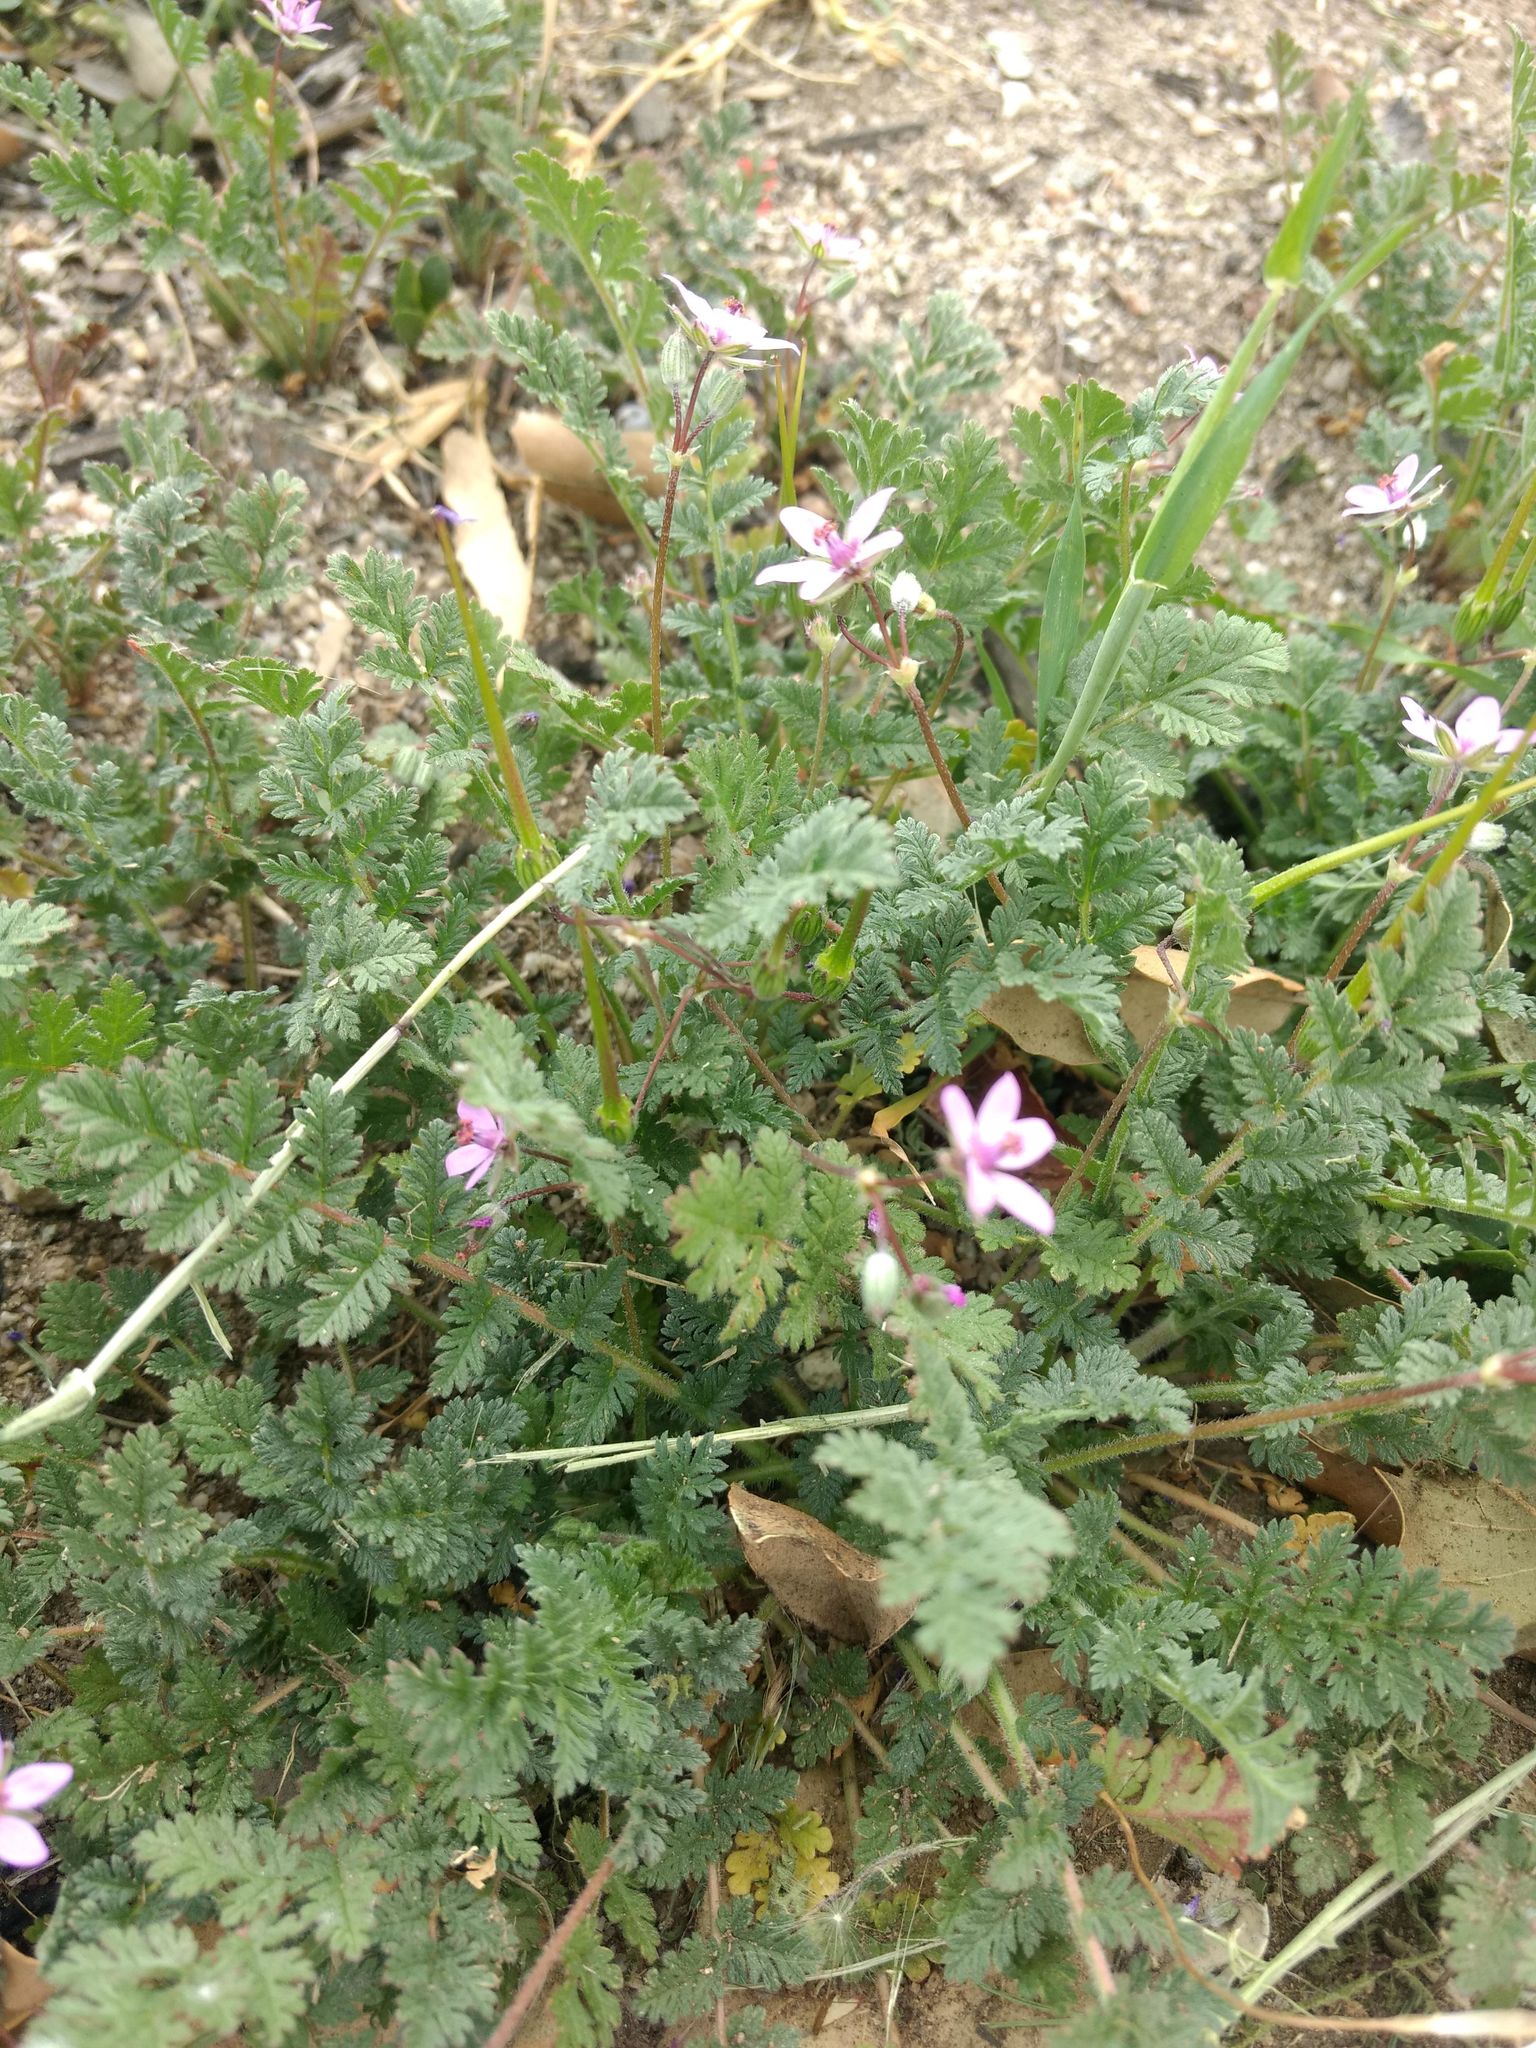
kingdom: Plantae
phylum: Tracheophyta
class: Magnoliopsida
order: Geraniales
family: Geraniaceae
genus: Erodium
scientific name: Erodium cicutarium
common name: Common stork's-bill
